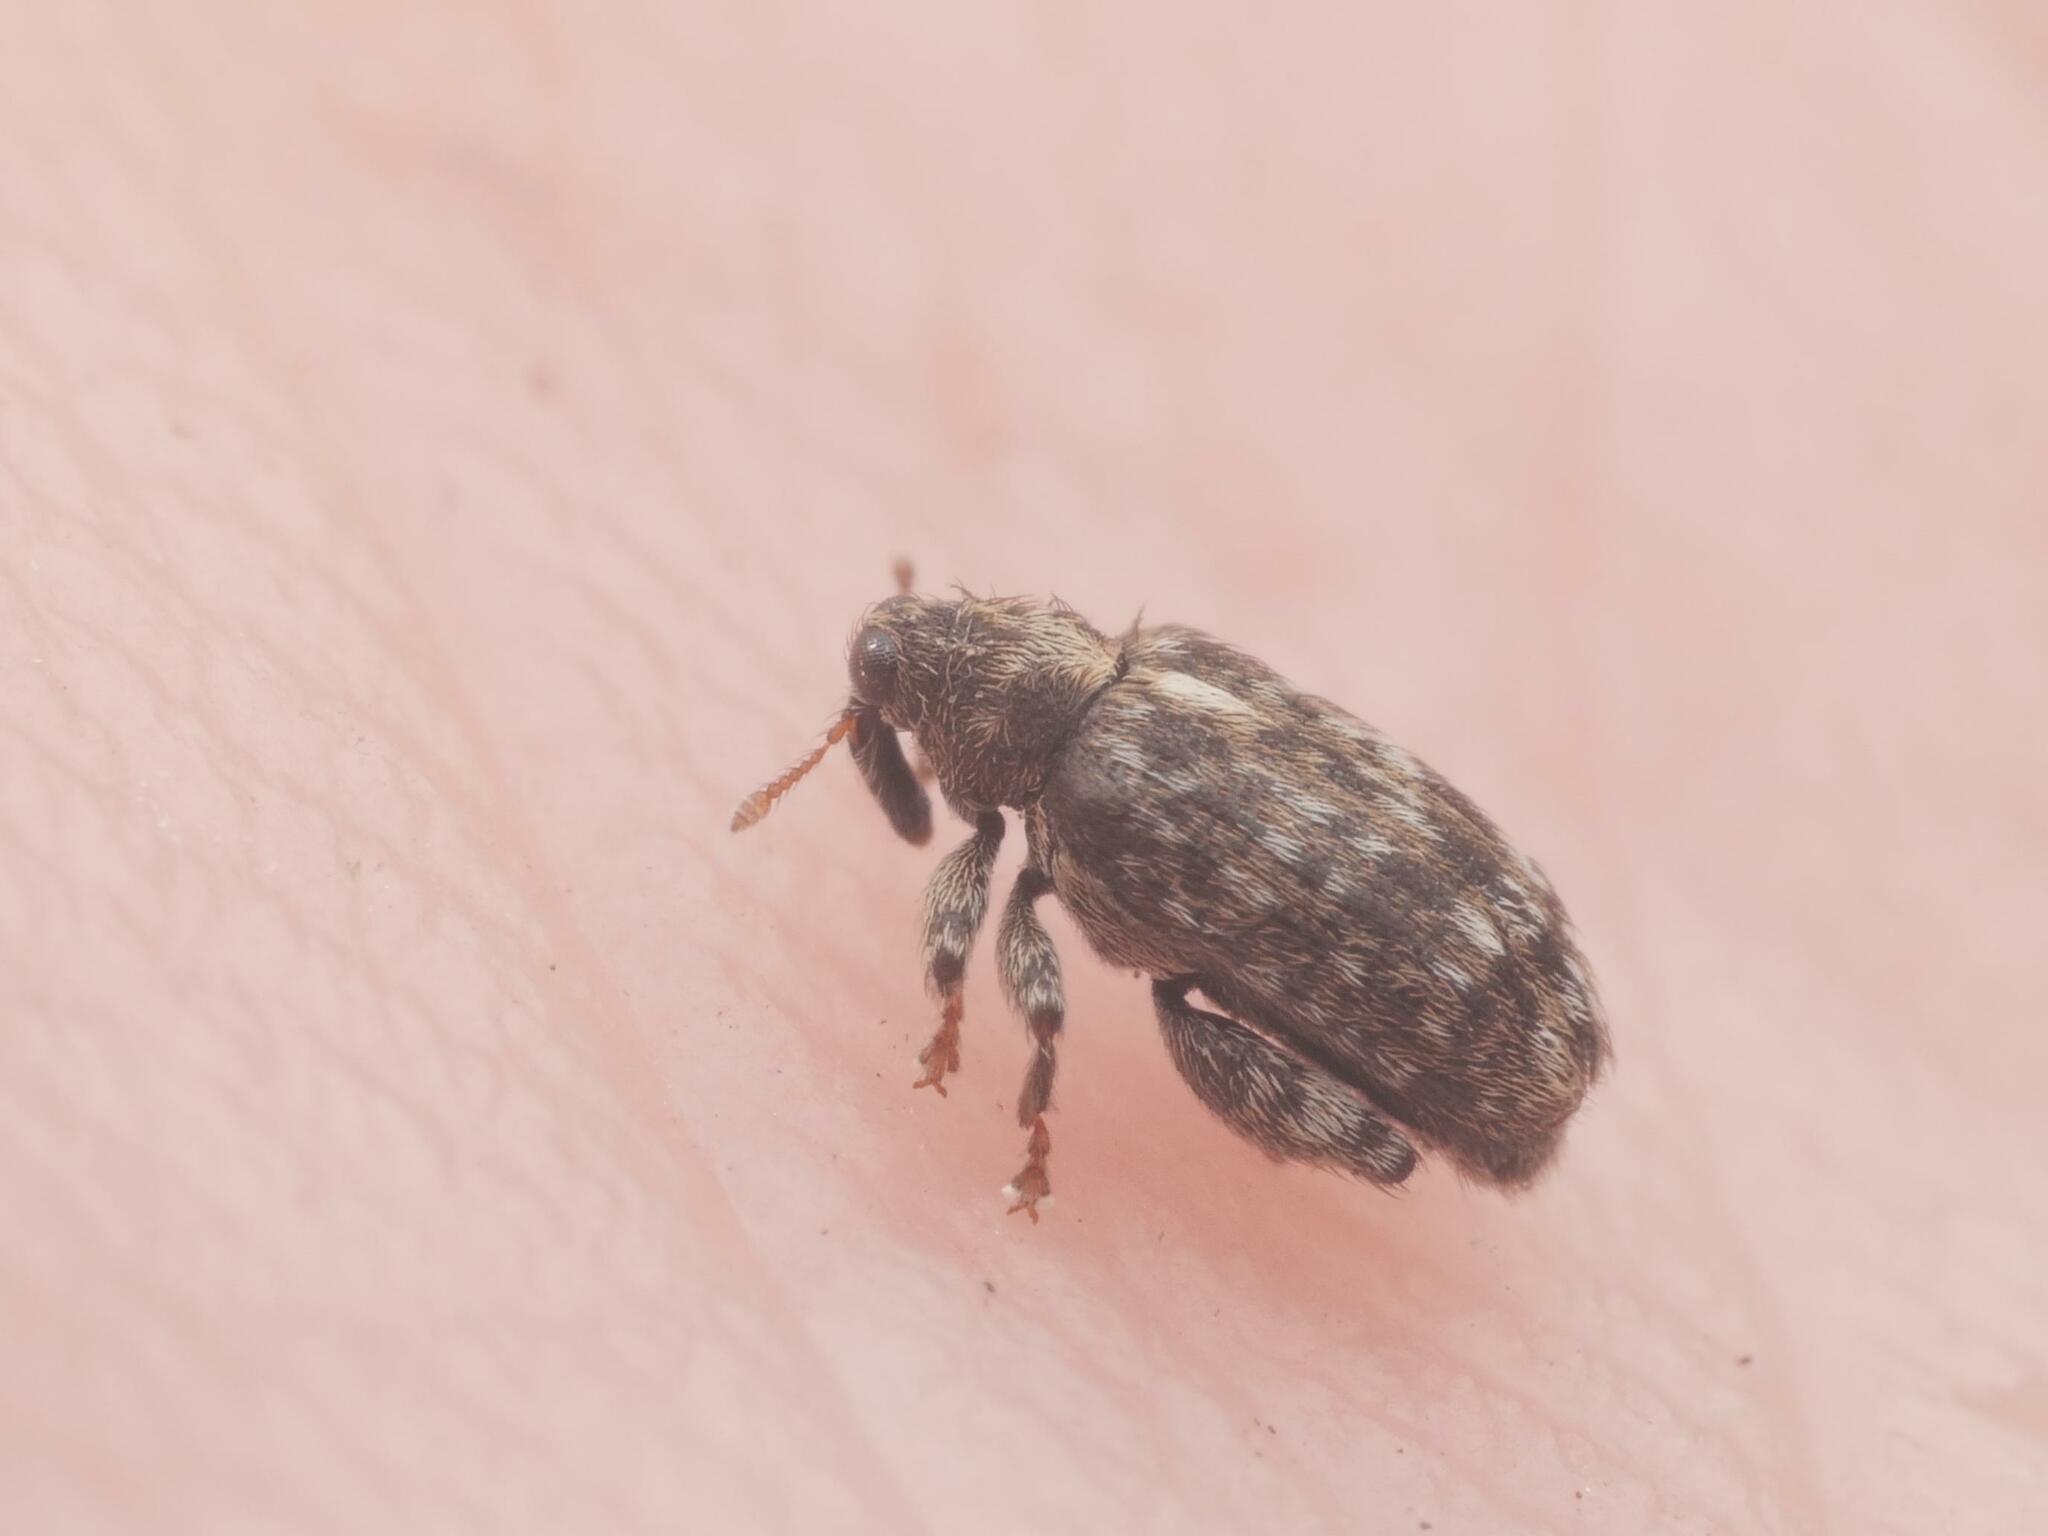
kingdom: Animalia
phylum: Arthropoda
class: Insecta
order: Coleoptera
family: Curculionidae
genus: Orchestes
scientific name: Orchestes pilosus
